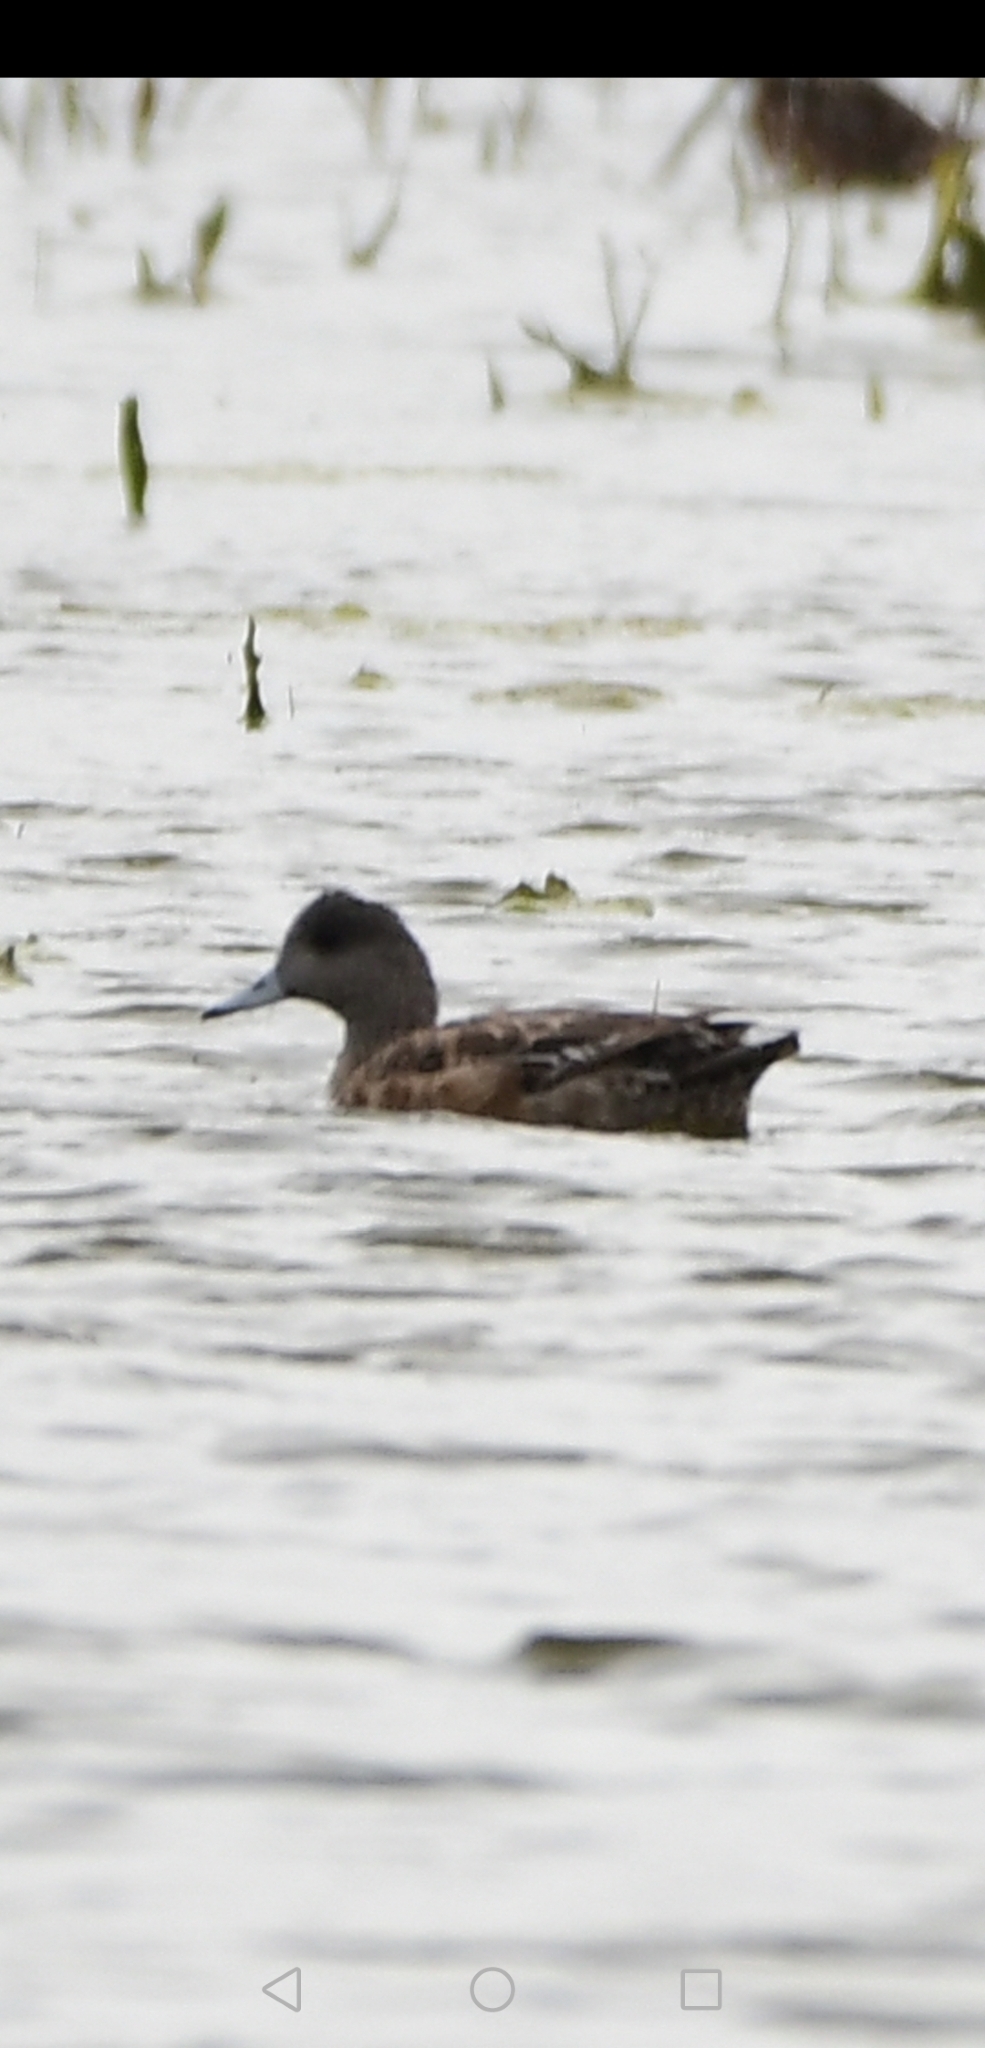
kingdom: Animalia
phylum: Chordata
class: Aves
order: Anseriformes
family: Anatidae
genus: Mareca
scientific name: Mareca americana
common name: American wigeon
